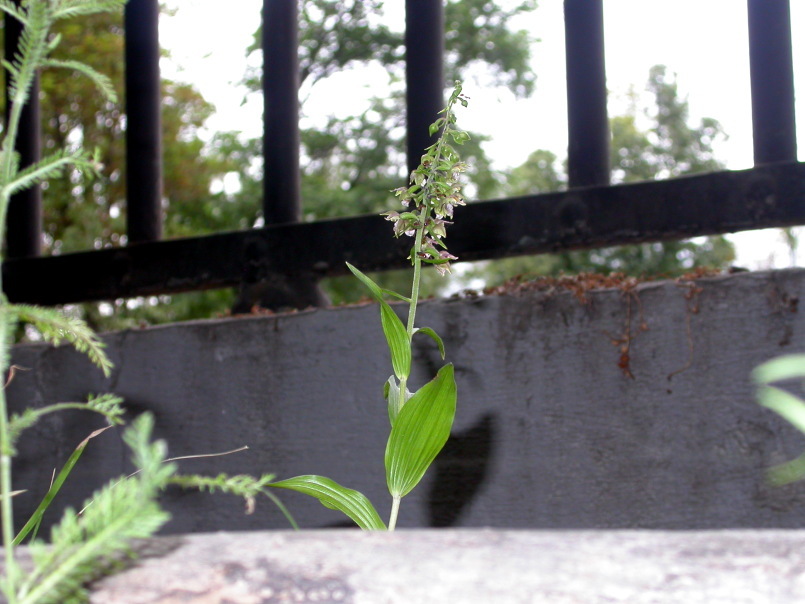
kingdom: Plantae
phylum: Tracheophyta
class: Liliopsida
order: Asparagales
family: Orchidaceae
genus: Epipactis
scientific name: Epipactis helleborine
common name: Broad-leaved helleborine
